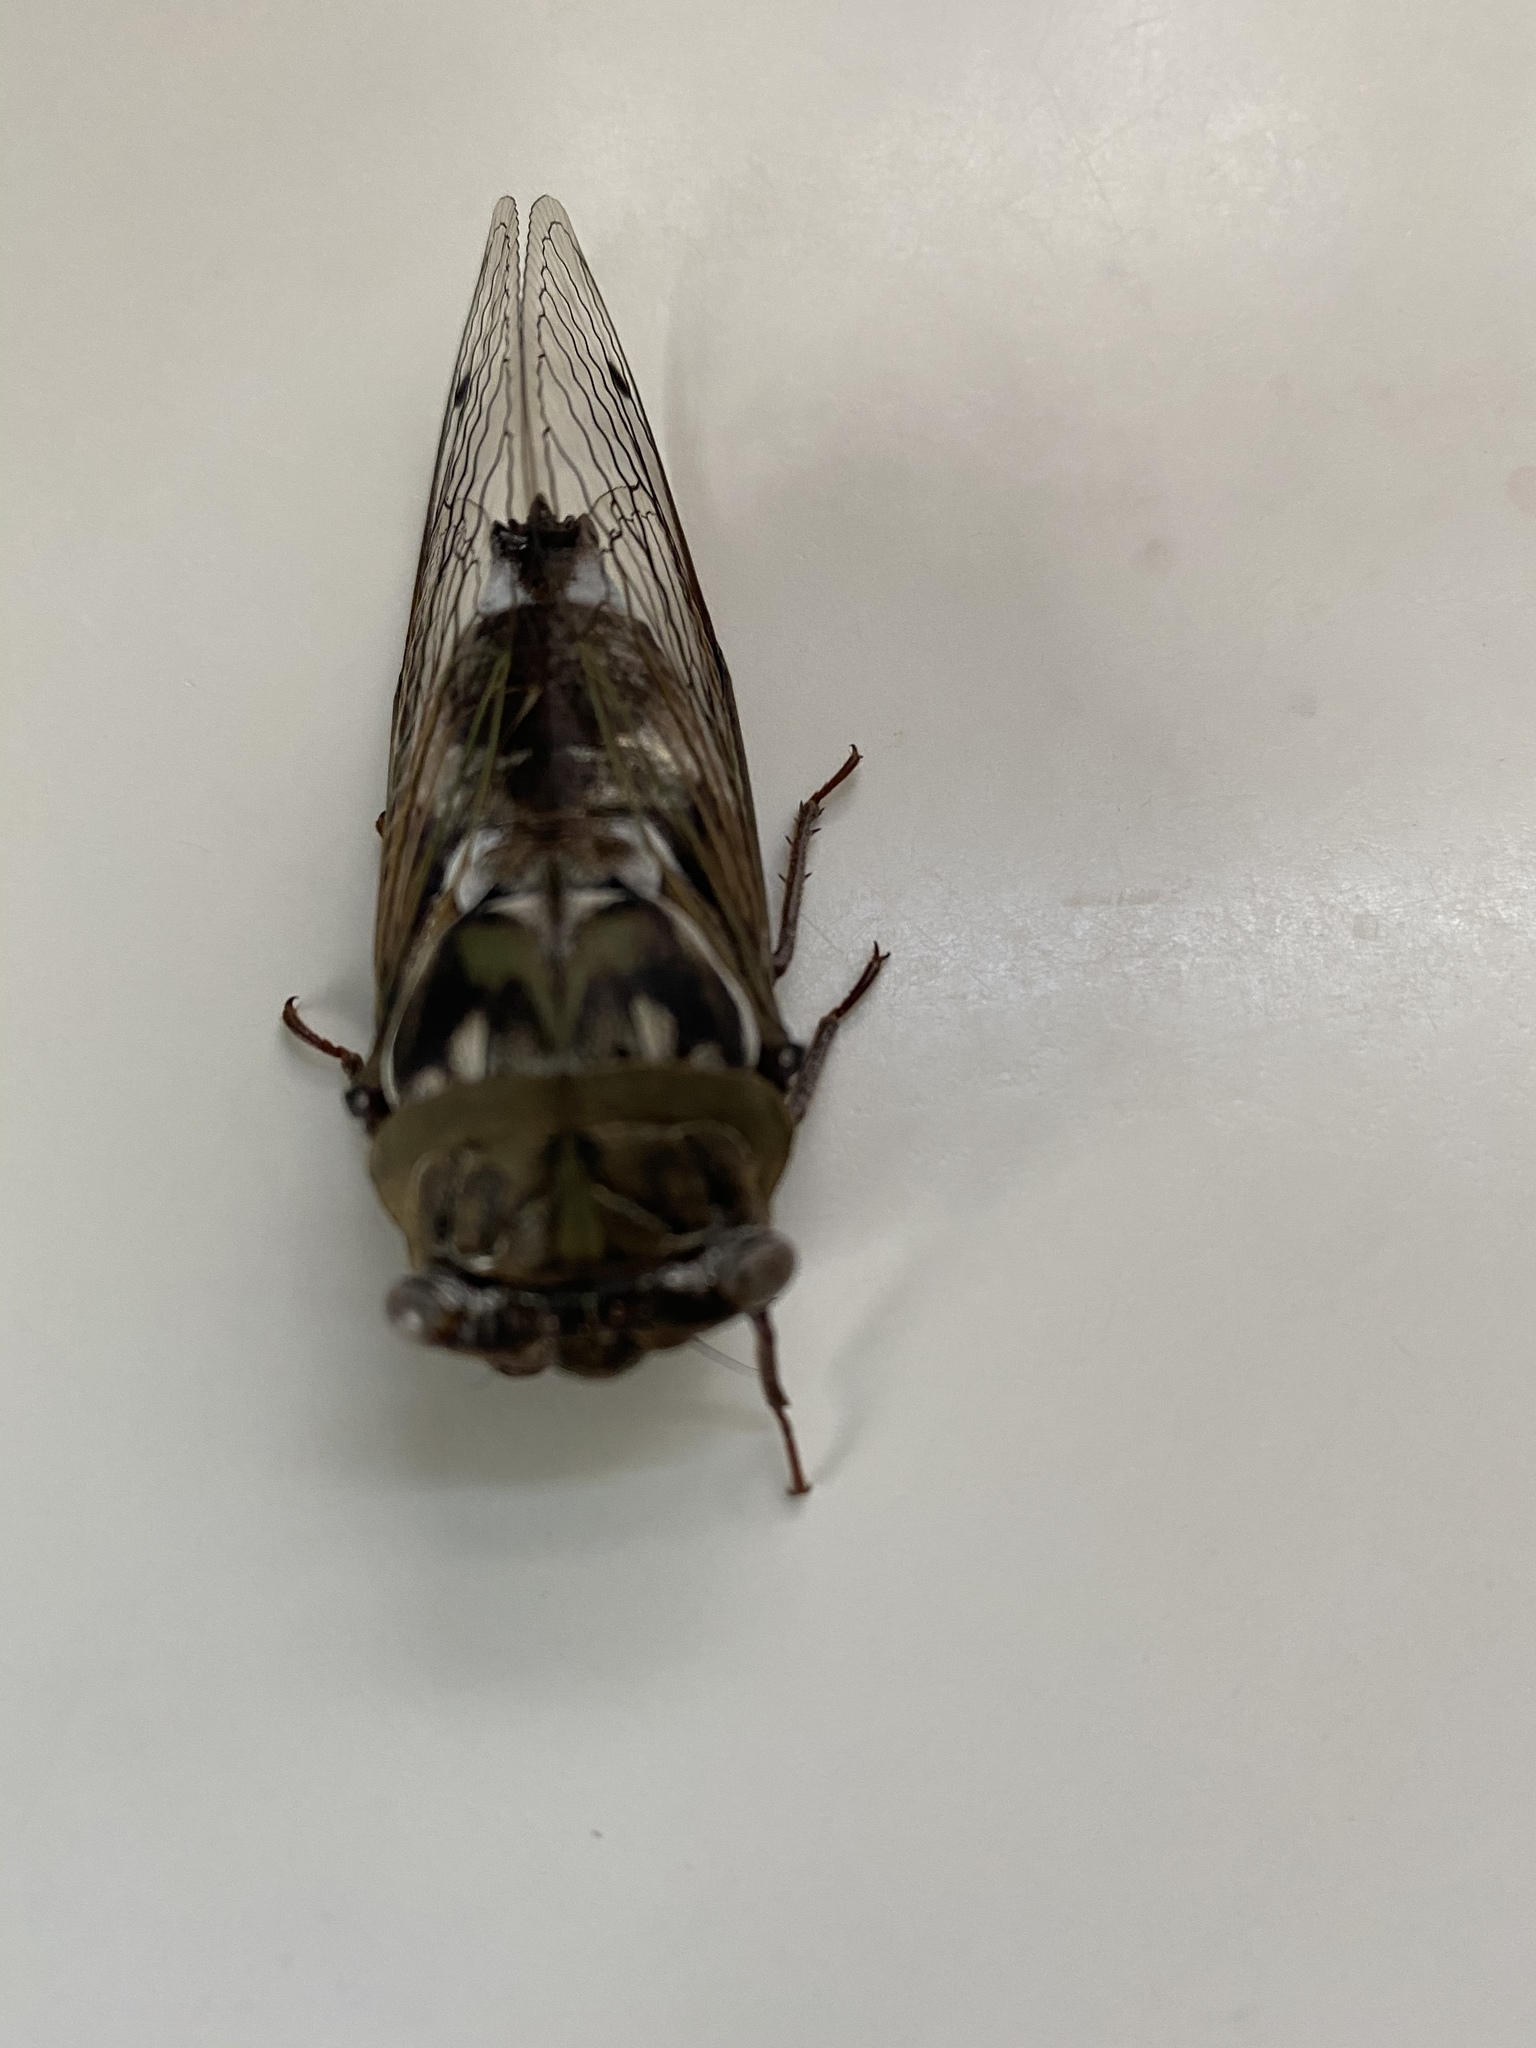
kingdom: Animalia
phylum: Arthropoda
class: Insecta
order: Hemiptera
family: Cicadidae
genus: Megatibicen
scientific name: Megatibicen resh
